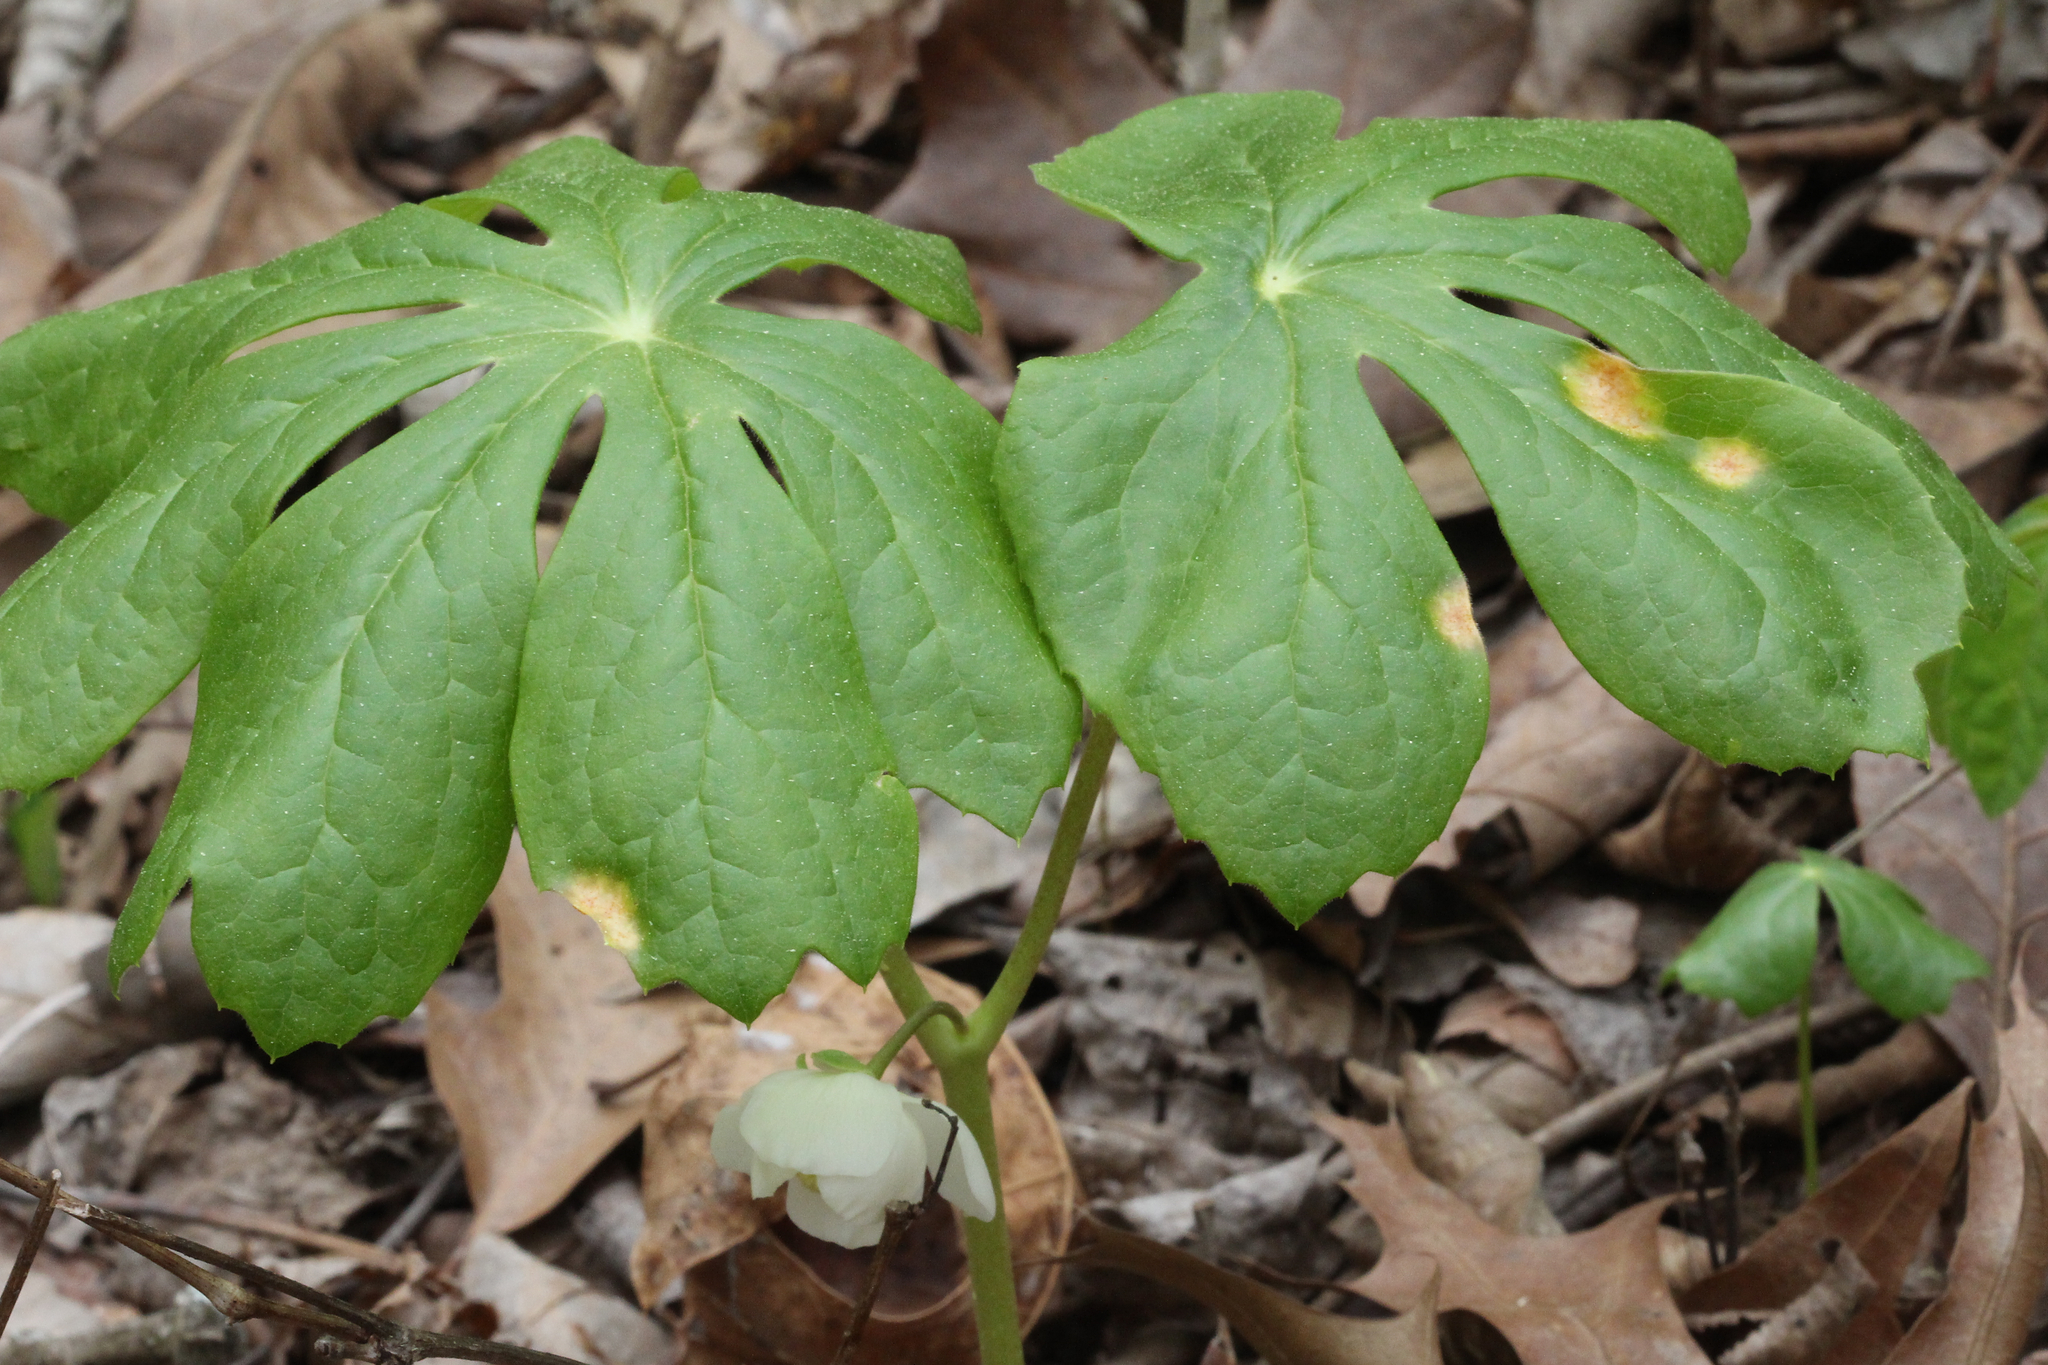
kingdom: Plantae
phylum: Tracheophyta
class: Magnoliopsida
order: Ranunculales
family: Berberidaceae
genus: Podophyllum
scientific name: Podophyllum peltatum
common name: Wild mandrake
